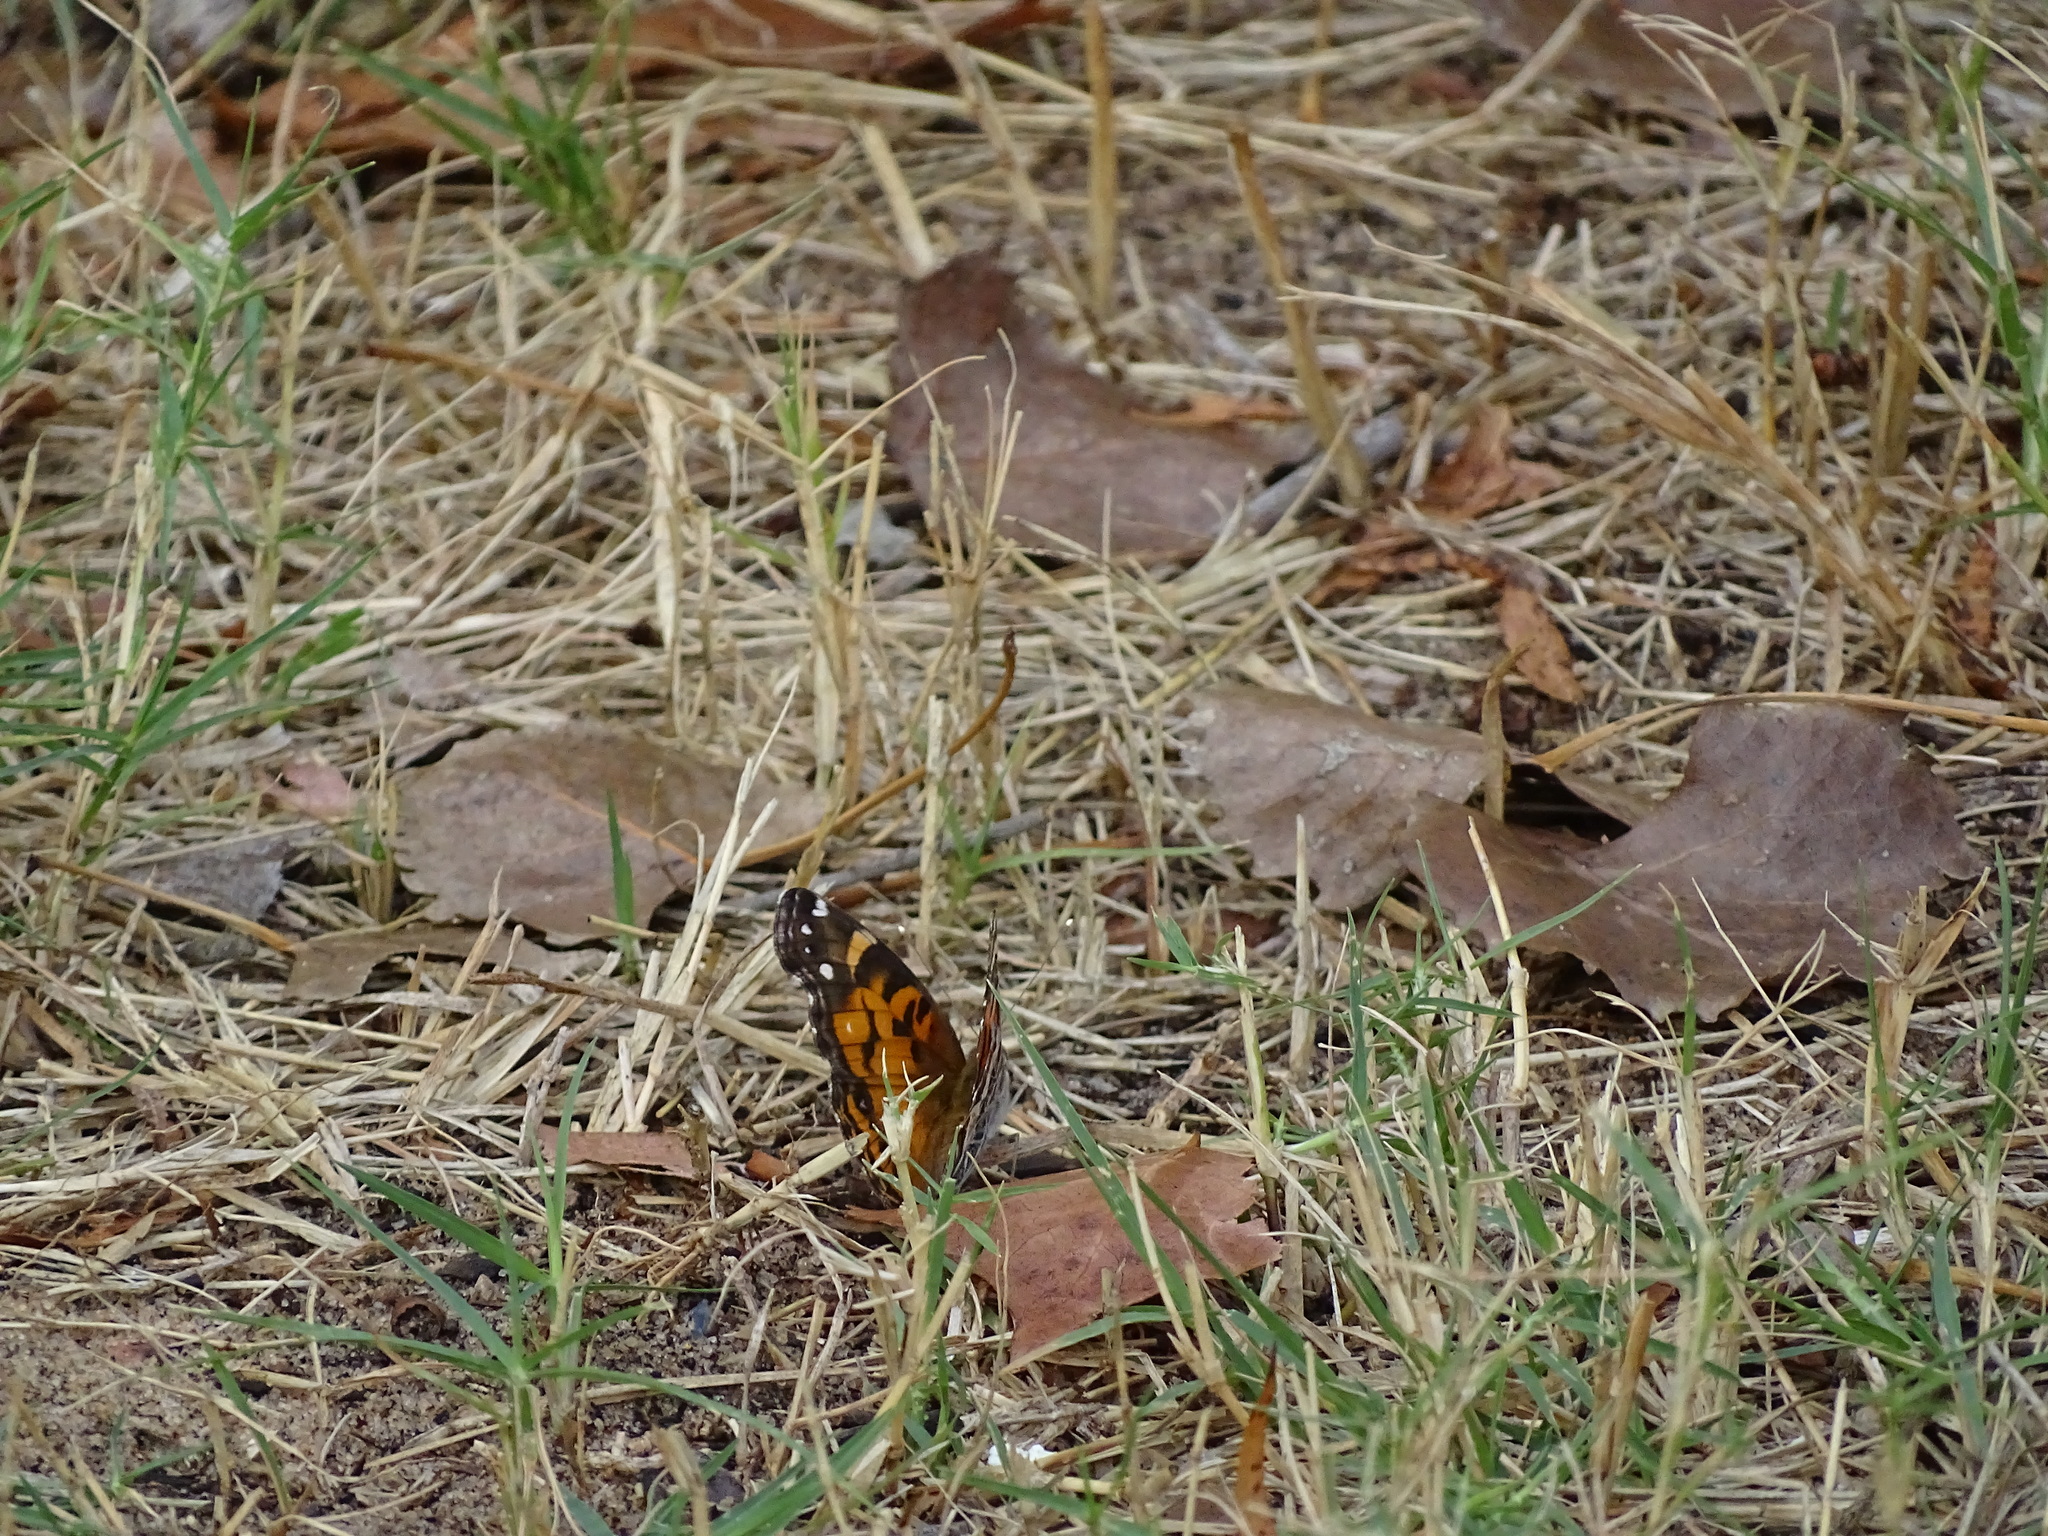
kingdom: Animalia
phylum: Arthropoda
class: Insecta
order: Lepidoptera
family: Nymphalidae
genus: Vanessa
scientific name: Vanessa virginiensis
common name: American lady
